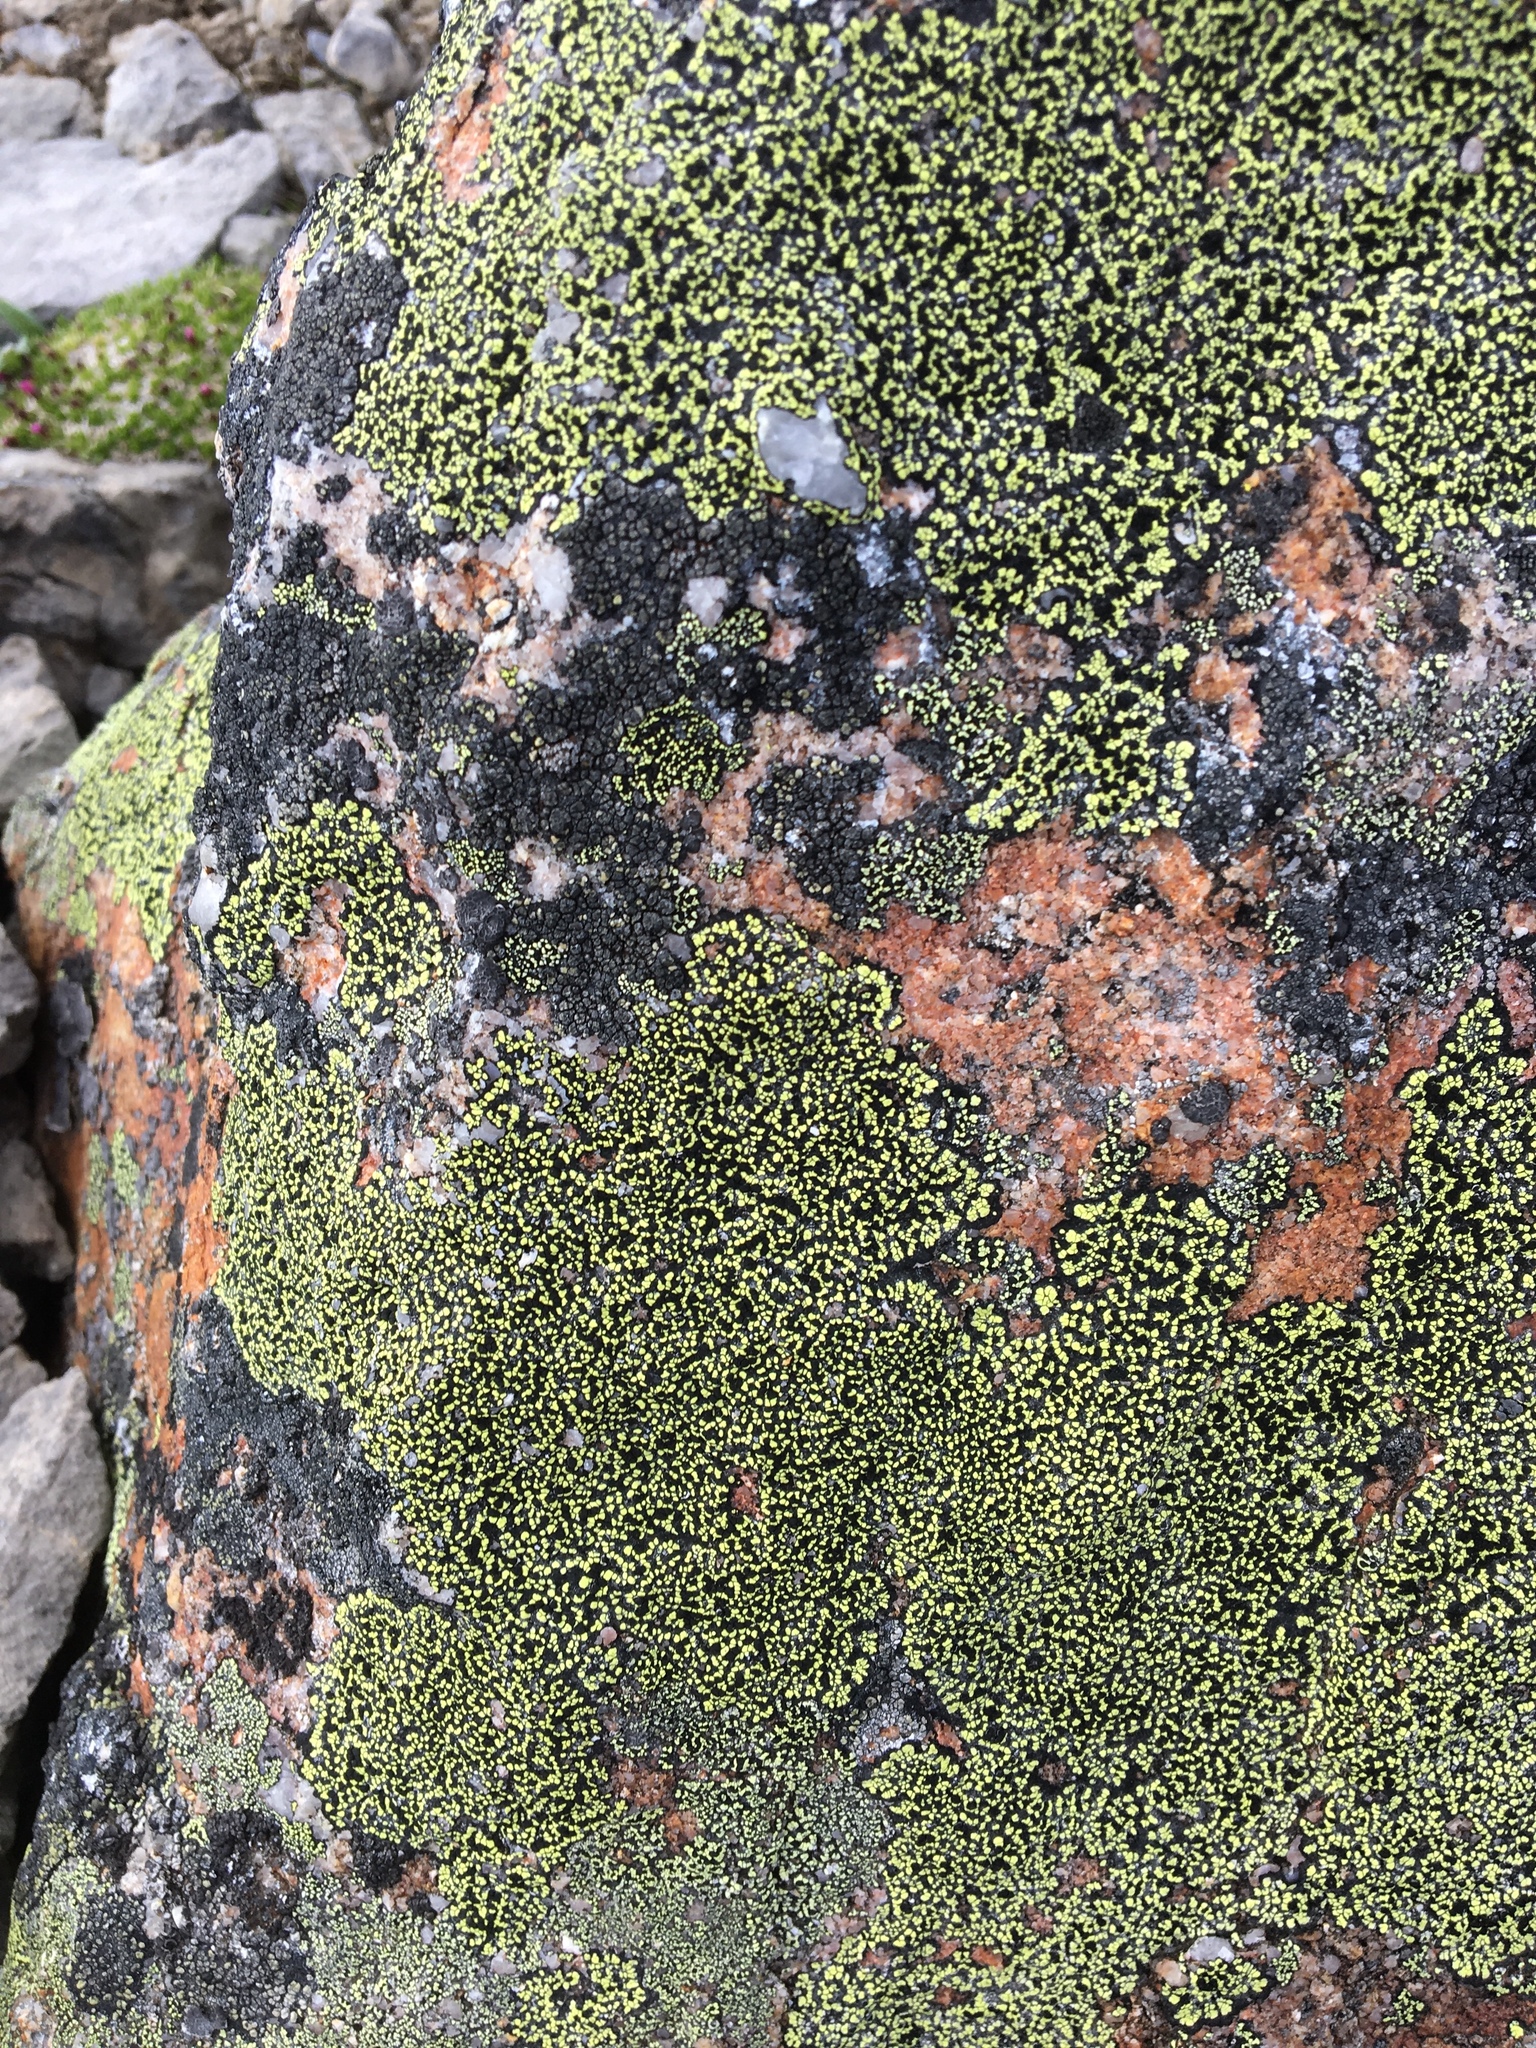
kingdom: Fungi
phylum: Ascomycota
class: Lecanoromycetes
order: Rhizocarpales
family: Rhizocarpaceae
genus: Rhizocarpon
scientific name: Rhizocarpon geographicum
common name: Yellow map lichen
